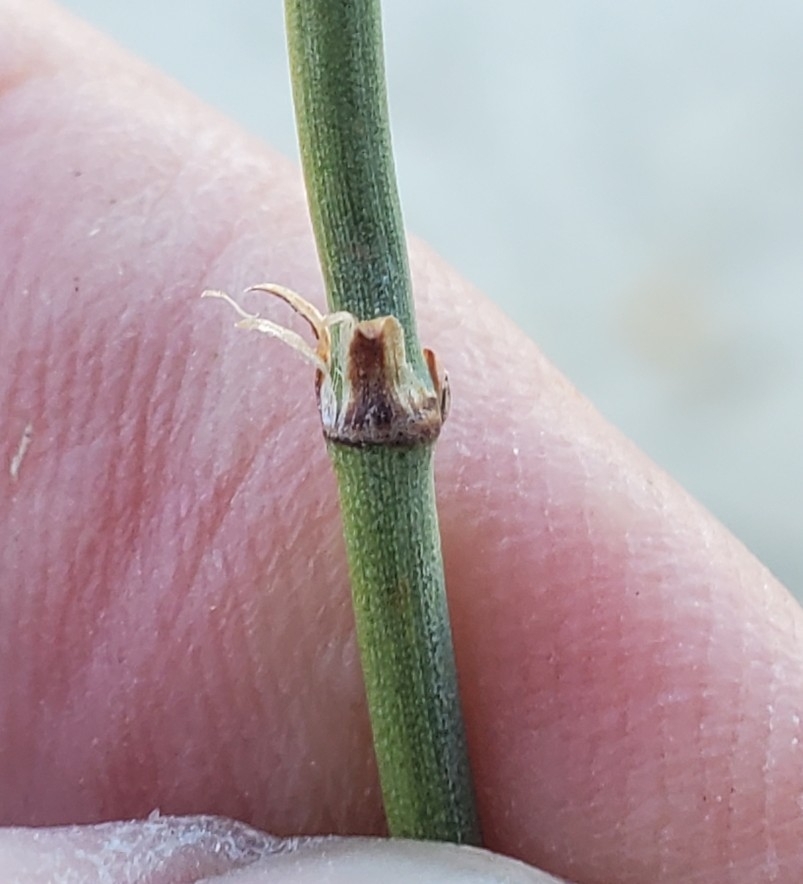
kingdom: Plantae
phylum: Tracheophyta
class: Gnetopsida
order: Ephedrales
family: Ephedraceae
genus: Ephedra
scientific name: Ephedra californica
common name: California ephedra
